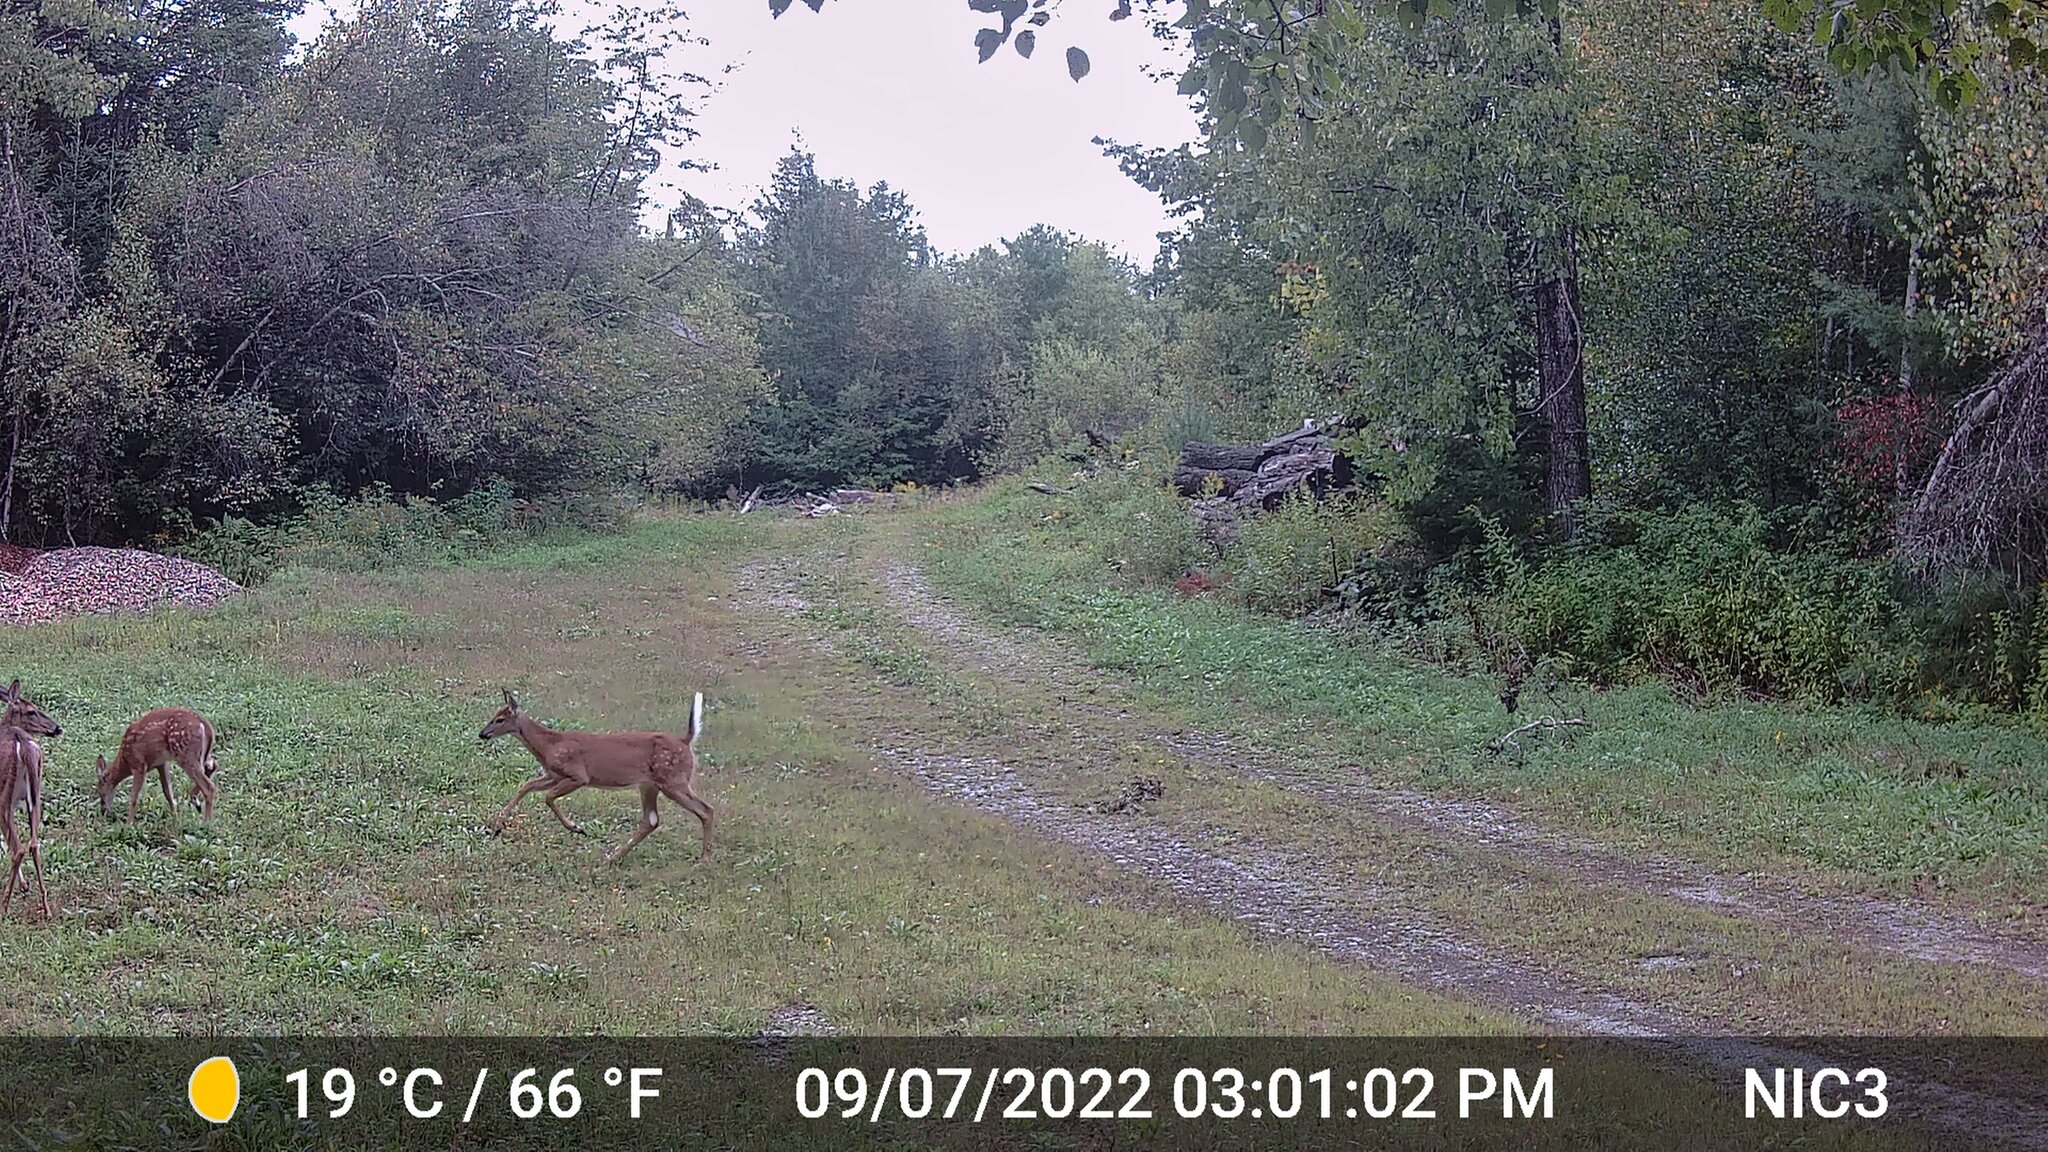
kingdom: Animalia
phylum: Chordata
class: Mammalia
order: Artiodactyla
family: Cervidae
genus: Odocoileus
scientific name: Odocoileus virginianus
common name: White-tailed deer
